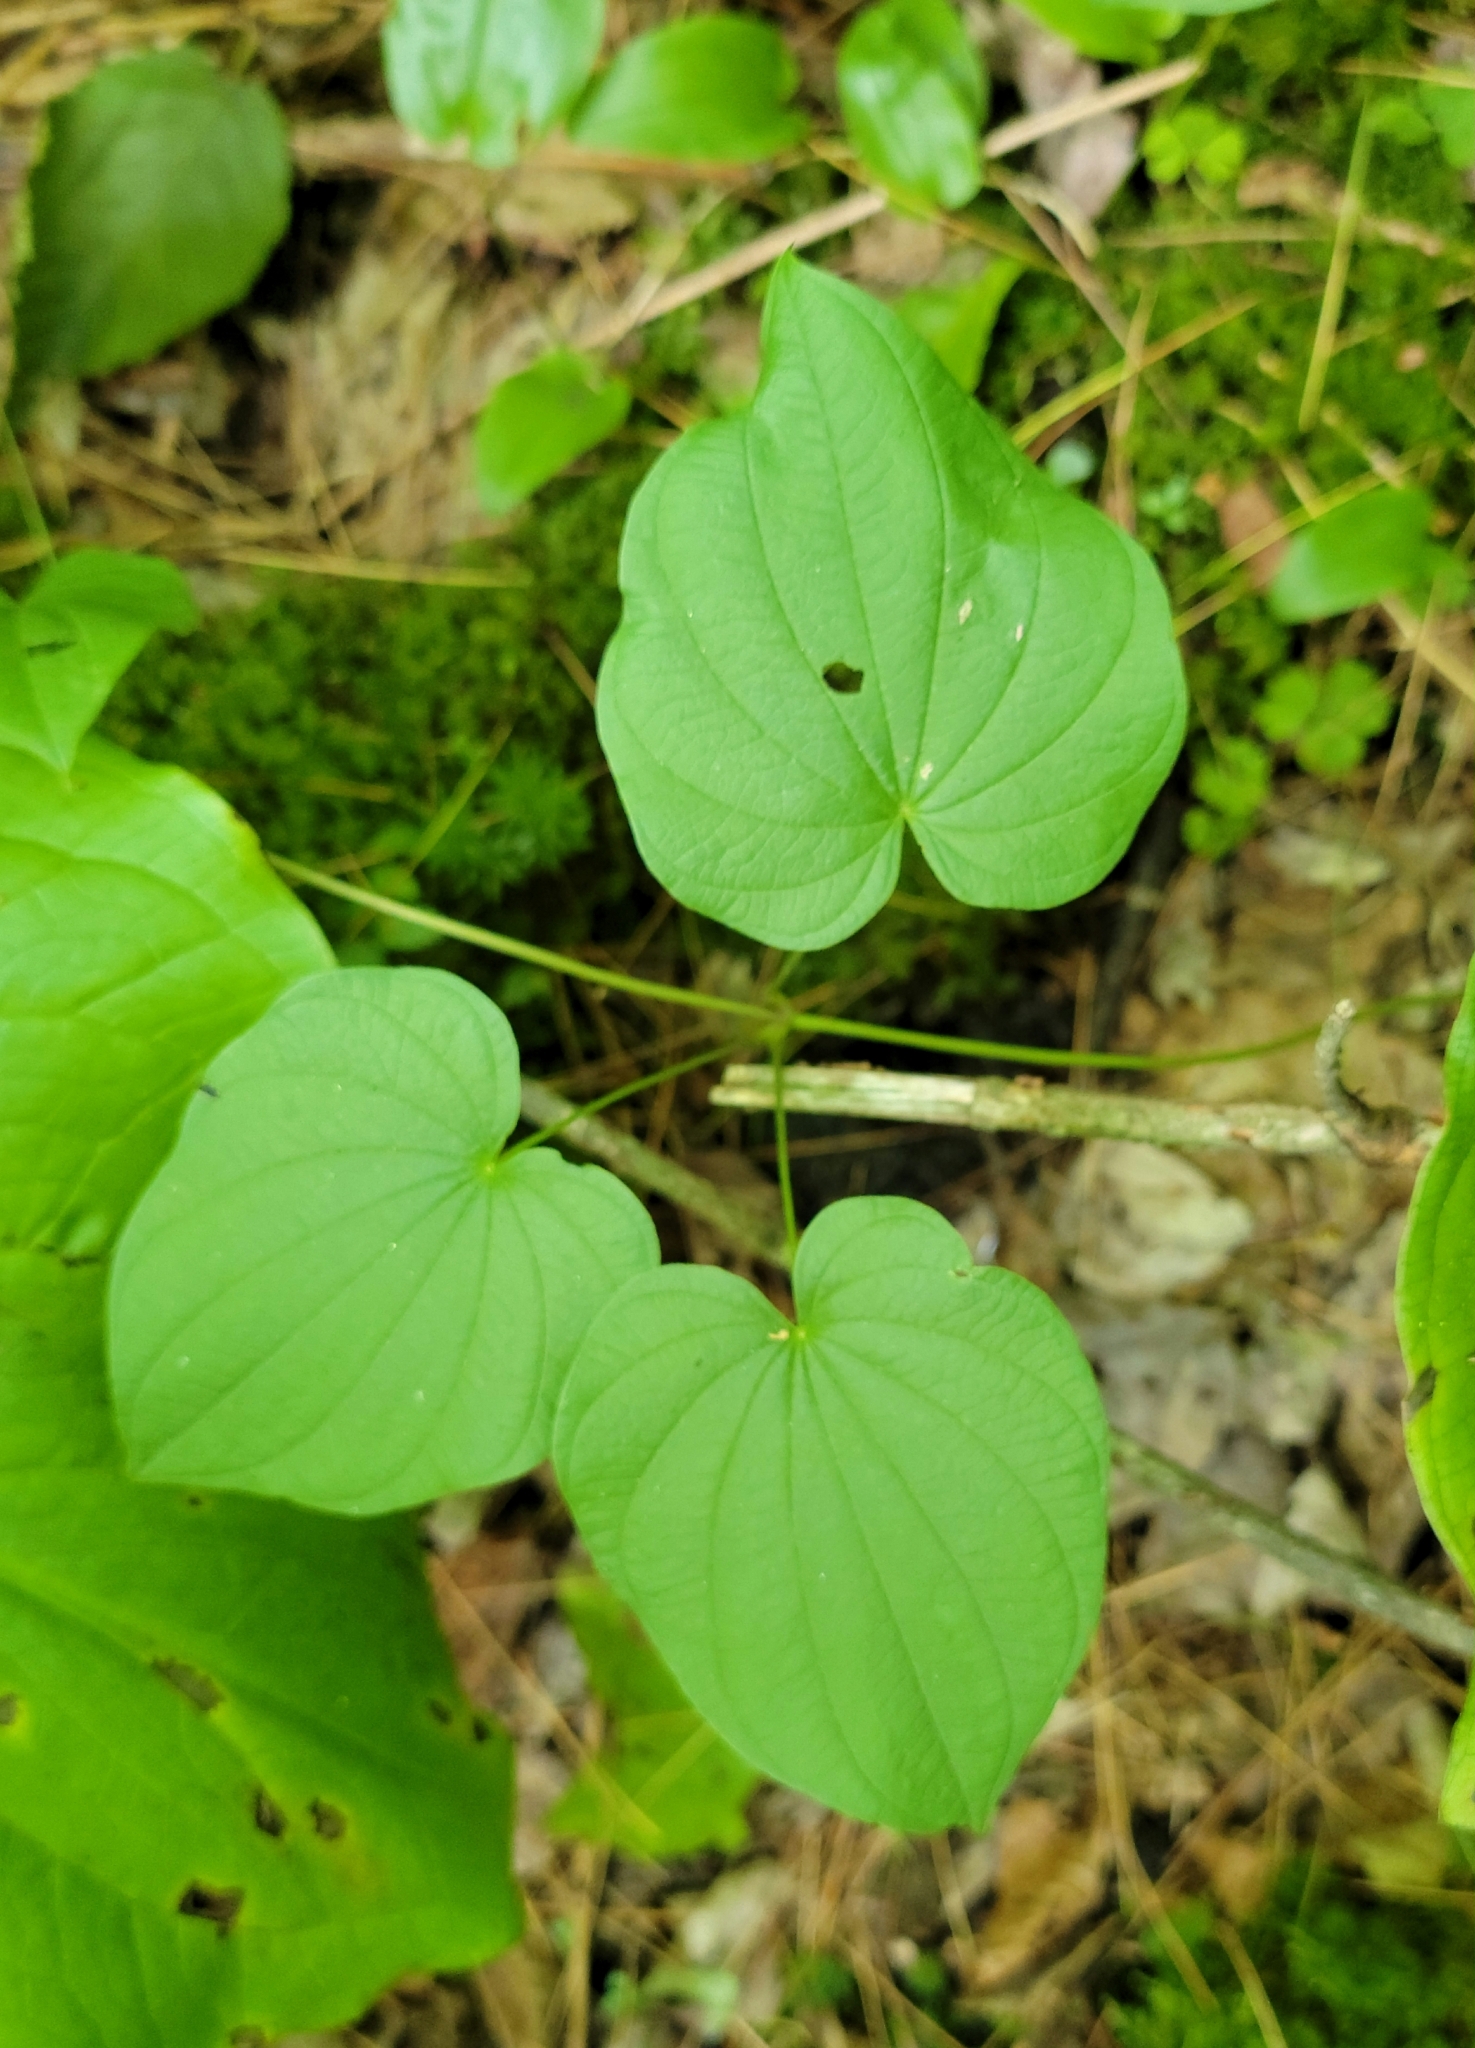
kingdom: Plantae
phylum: Tracheophyta
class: Liliopsida
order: Dioscoreales
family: Dioscoreaceae
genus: Dioscorea
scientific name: Dioscorea villosa
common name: Wild yam
